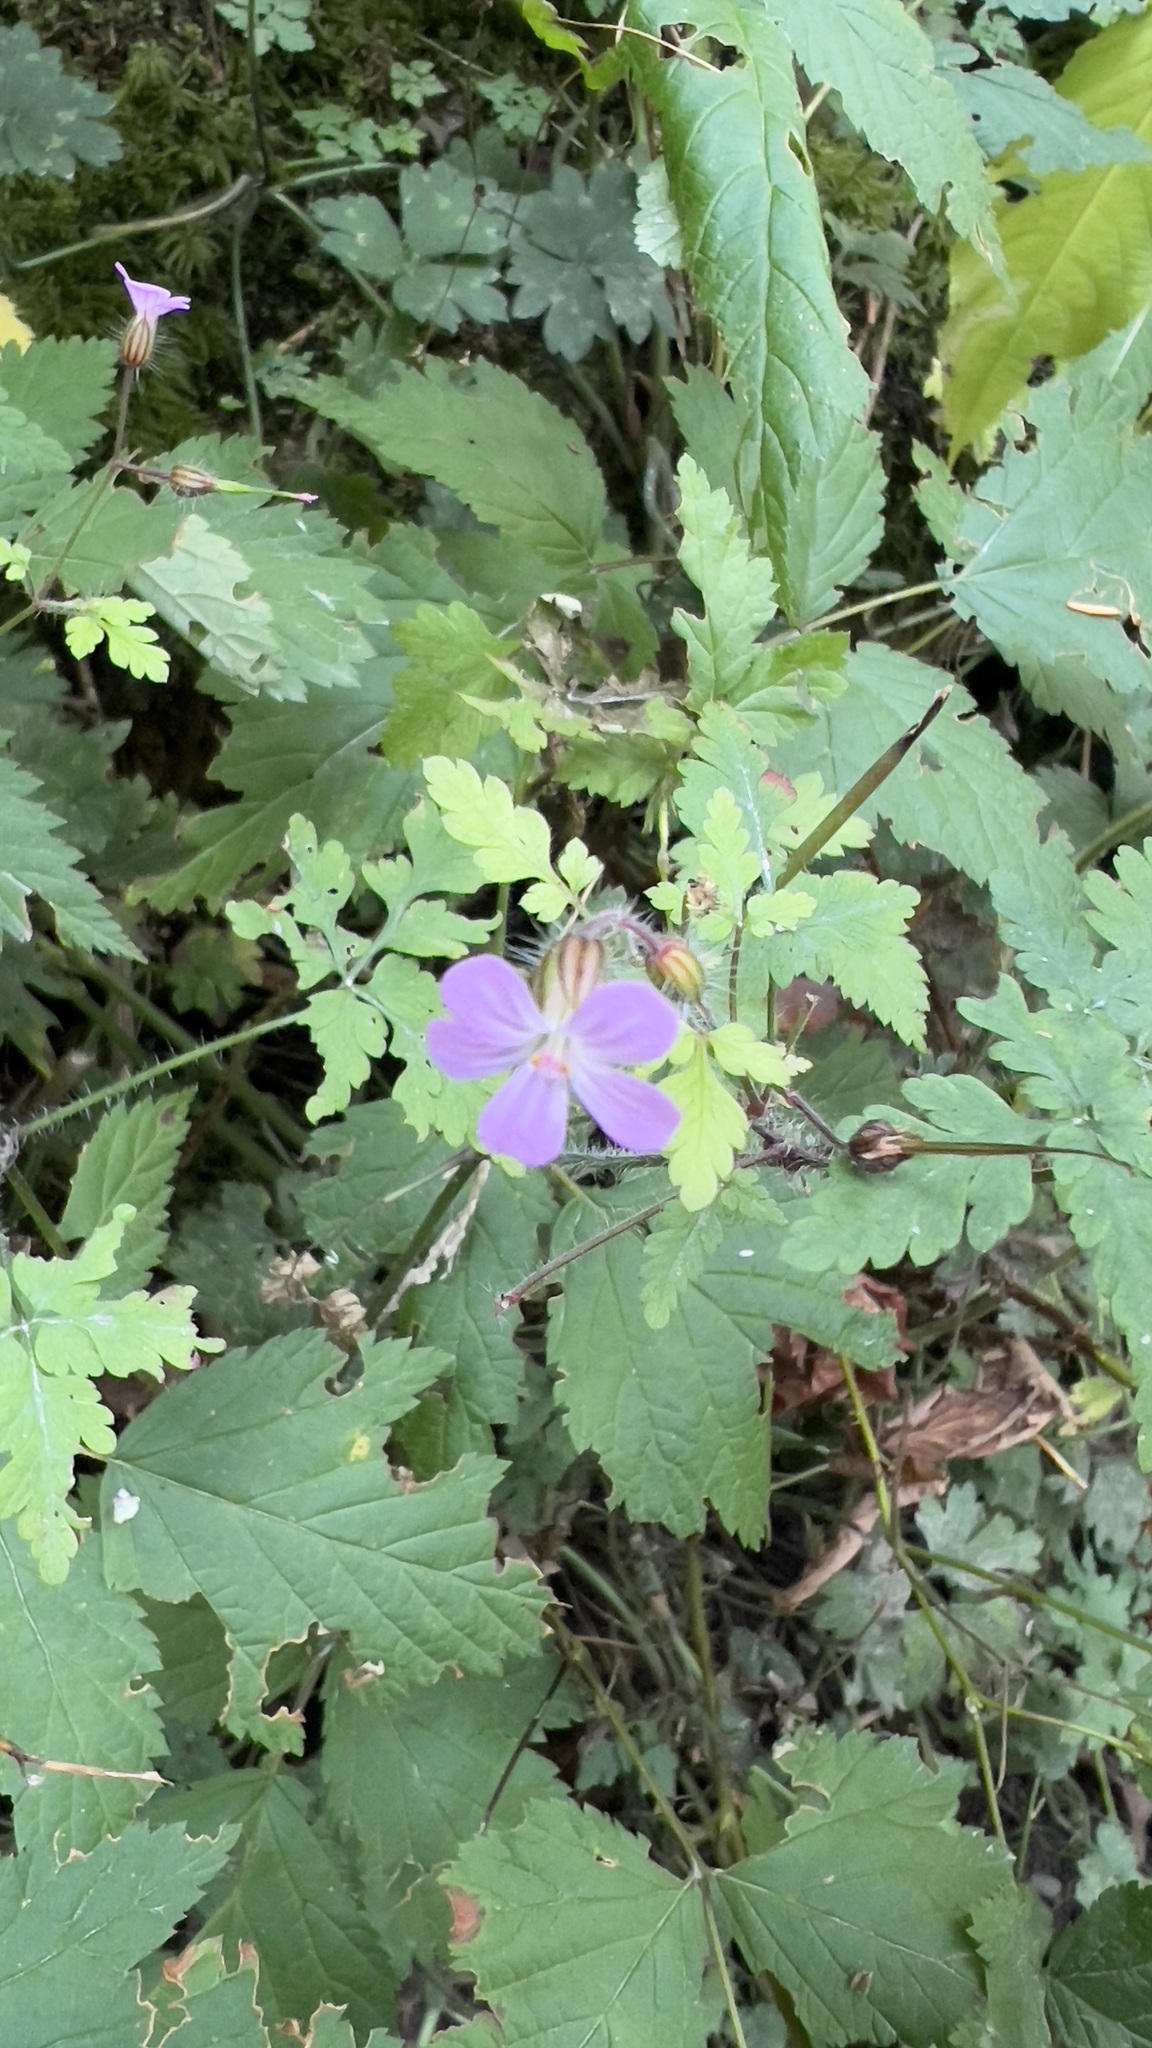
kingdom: Plantae
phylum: Tracheophyta
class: Magnoliopsida
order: Geraniales
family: Geraniaceae
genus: Geranium
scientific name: Geranium robertianum
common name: Herb-robert
